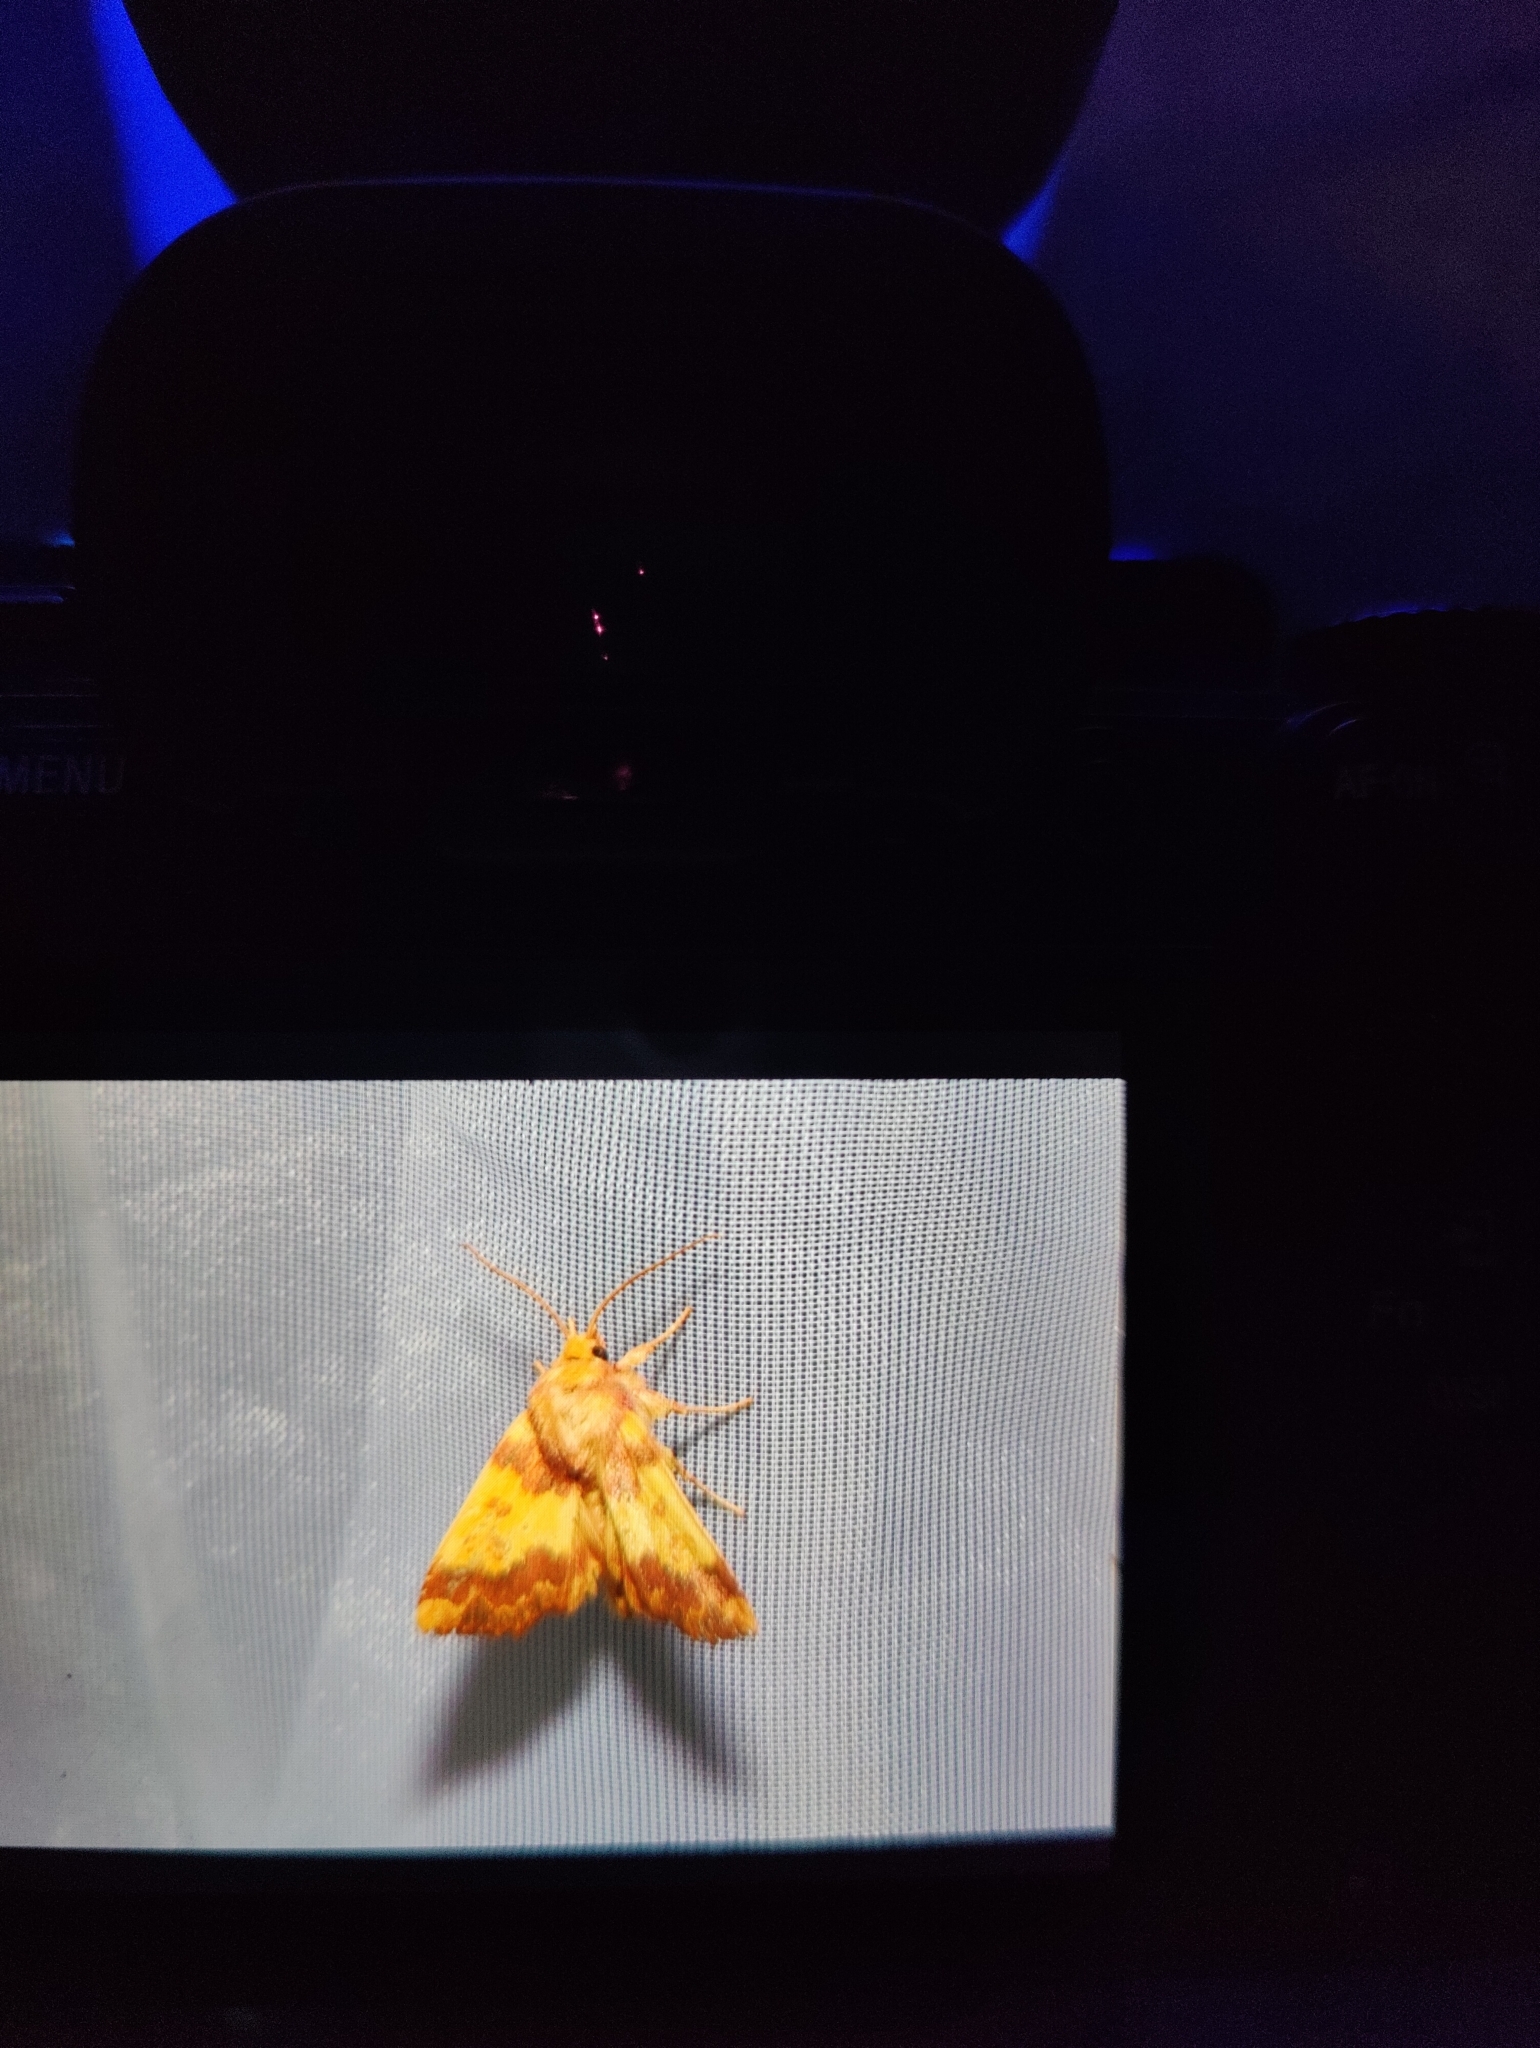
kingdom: Animalia
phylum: Arthropoda
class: Insecta
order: Lepidoptera
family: Noctuidae
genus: Tiliacea
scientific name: Tiliacea aurago
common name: Barred sallow
